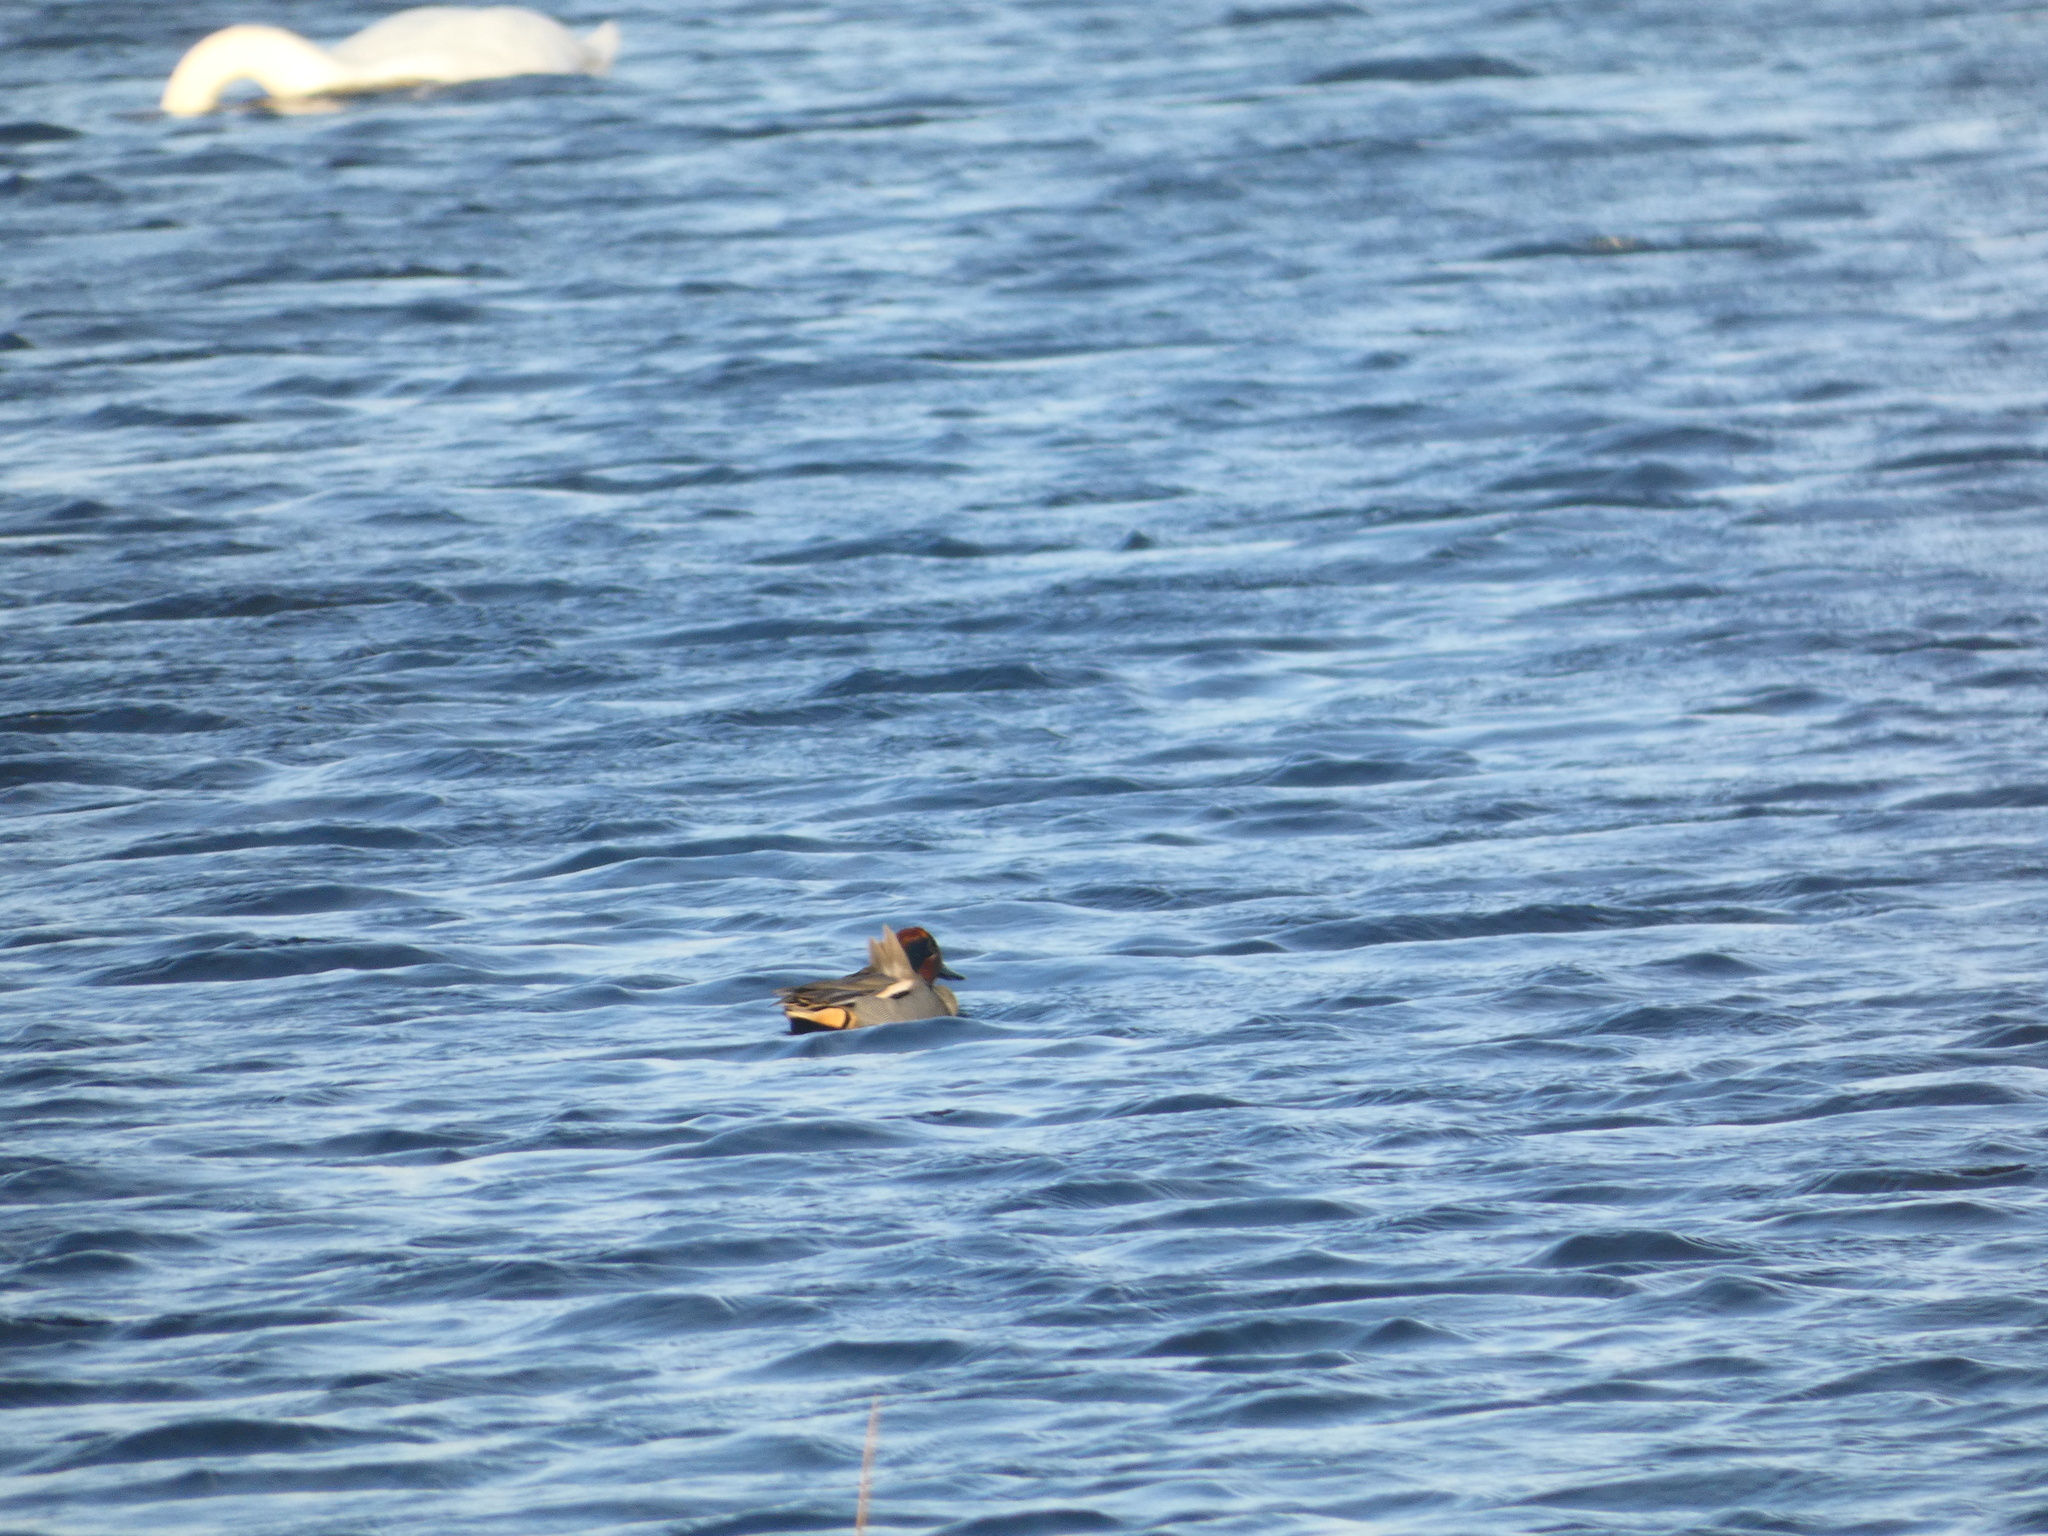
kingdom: Animalia
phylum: Chordata
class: Aves
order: Anseriformes
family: Anatidae
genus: Anas
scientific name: Anas crecca
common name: Eurasian teal
